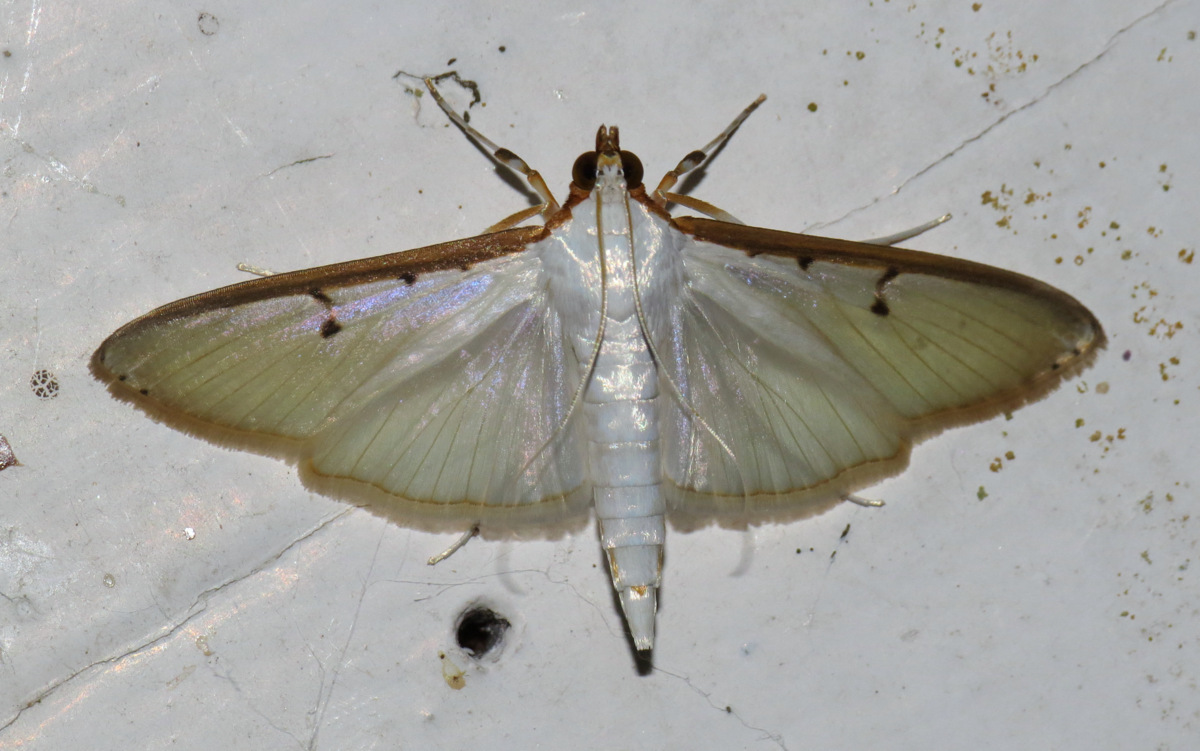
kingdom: Animalia
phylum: Arthropoda
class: Insecta
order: Lepidoptera
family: Crambidae
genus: Palpita
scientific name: Palpita persimilis
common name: Olive shootworm
